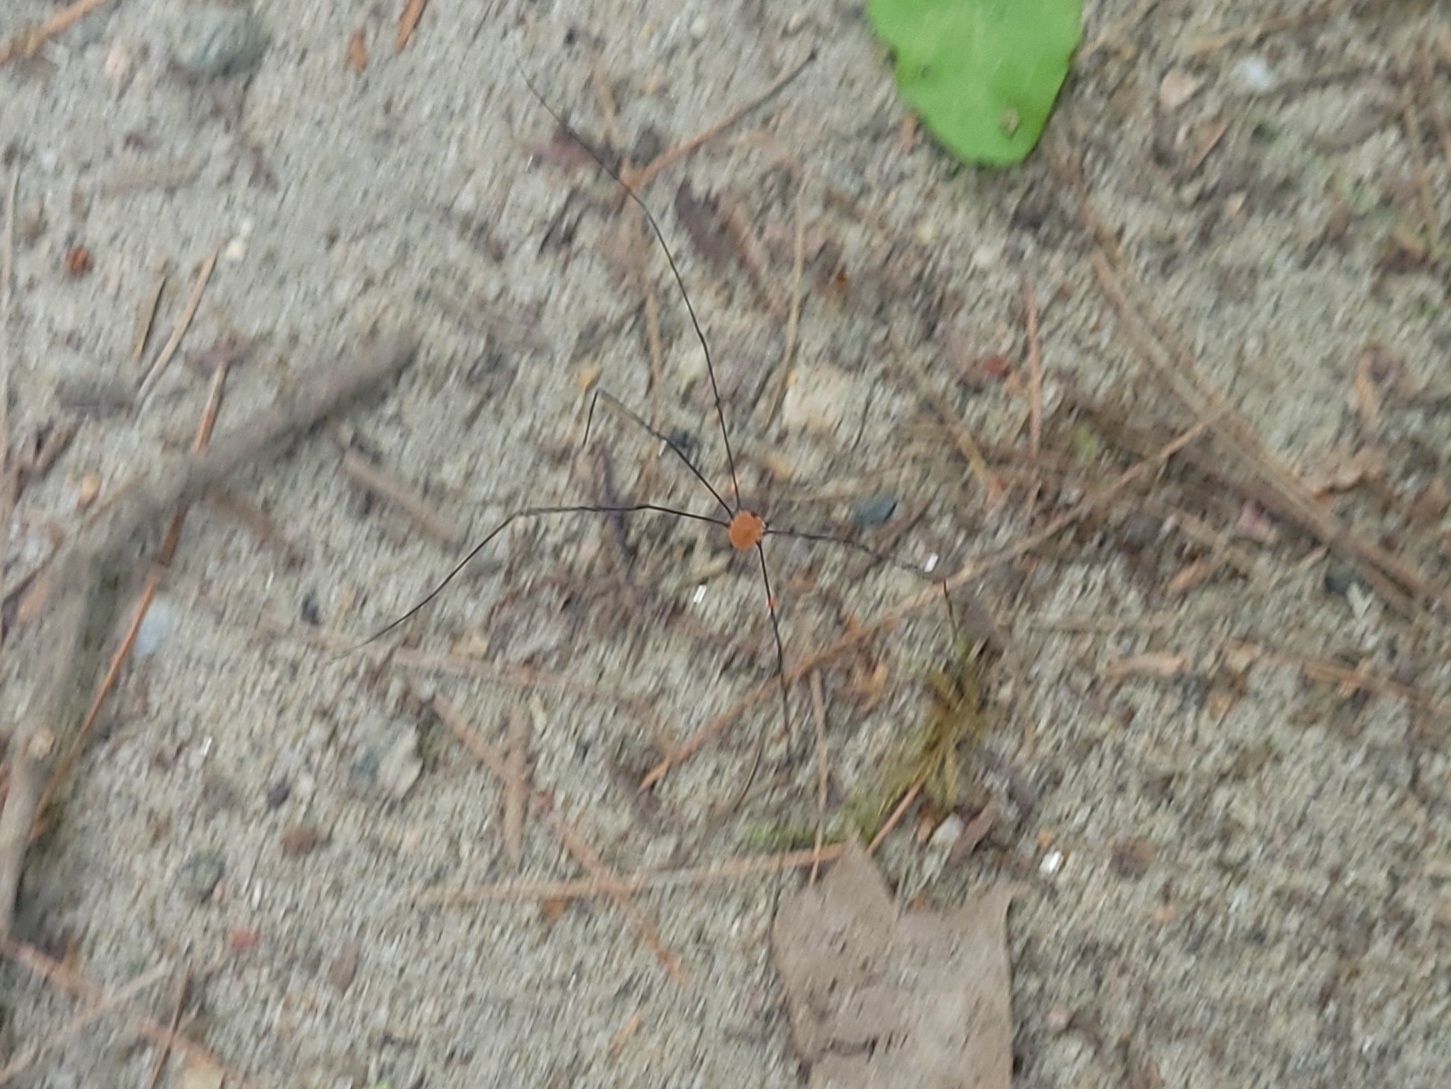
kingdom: Animalia
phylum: Arthropoda
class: Arachnida
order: Opiliones
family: Sclerosomatidae
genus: Leiobunum
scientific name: Leiobunum aldrichi
